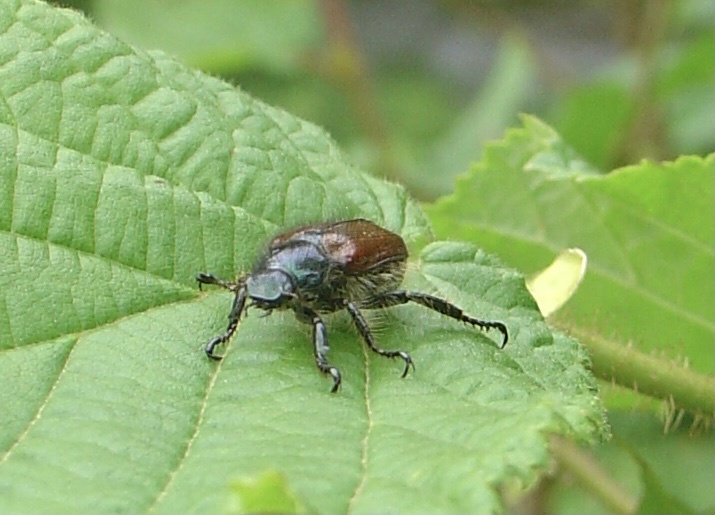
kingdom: Animalia
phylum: Arthropoda
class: Insecta
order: Coleoptera
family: Scarabaeidae
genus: Phyllopertha
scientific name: Phyllopertha horticola
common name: Garden chafer
